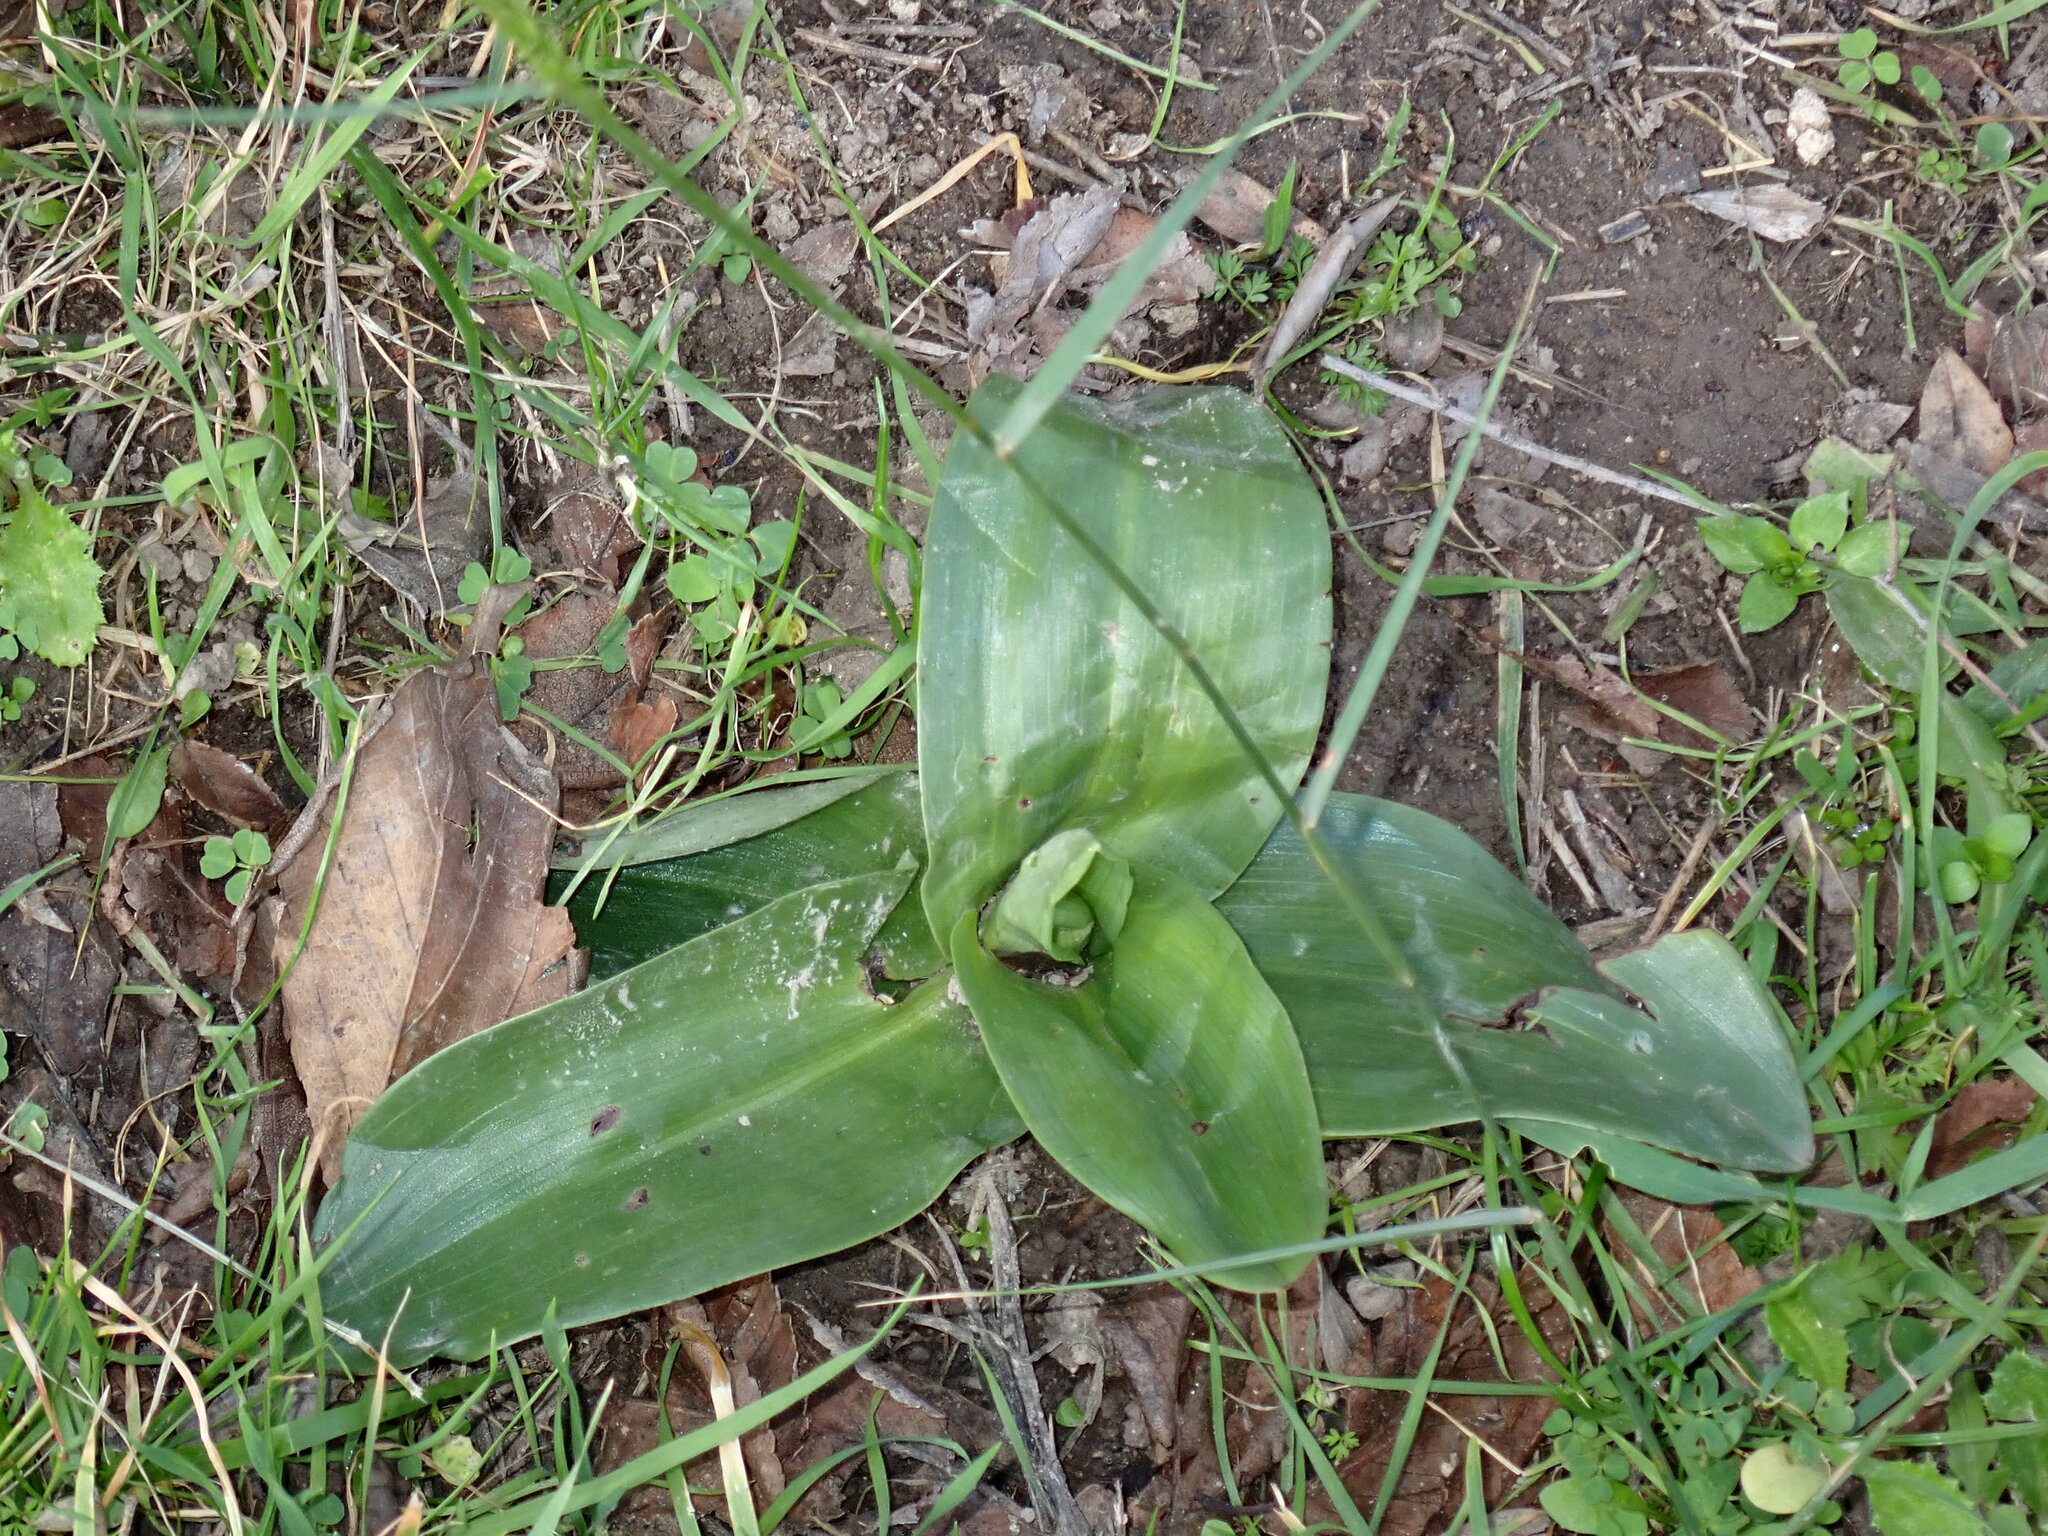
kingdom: Plantae
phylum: Tracheophyta
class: Liliopsida
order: Asparagales
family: Orchidaceae
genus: Himantoglossum
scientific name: Himantoglossum robertianum
